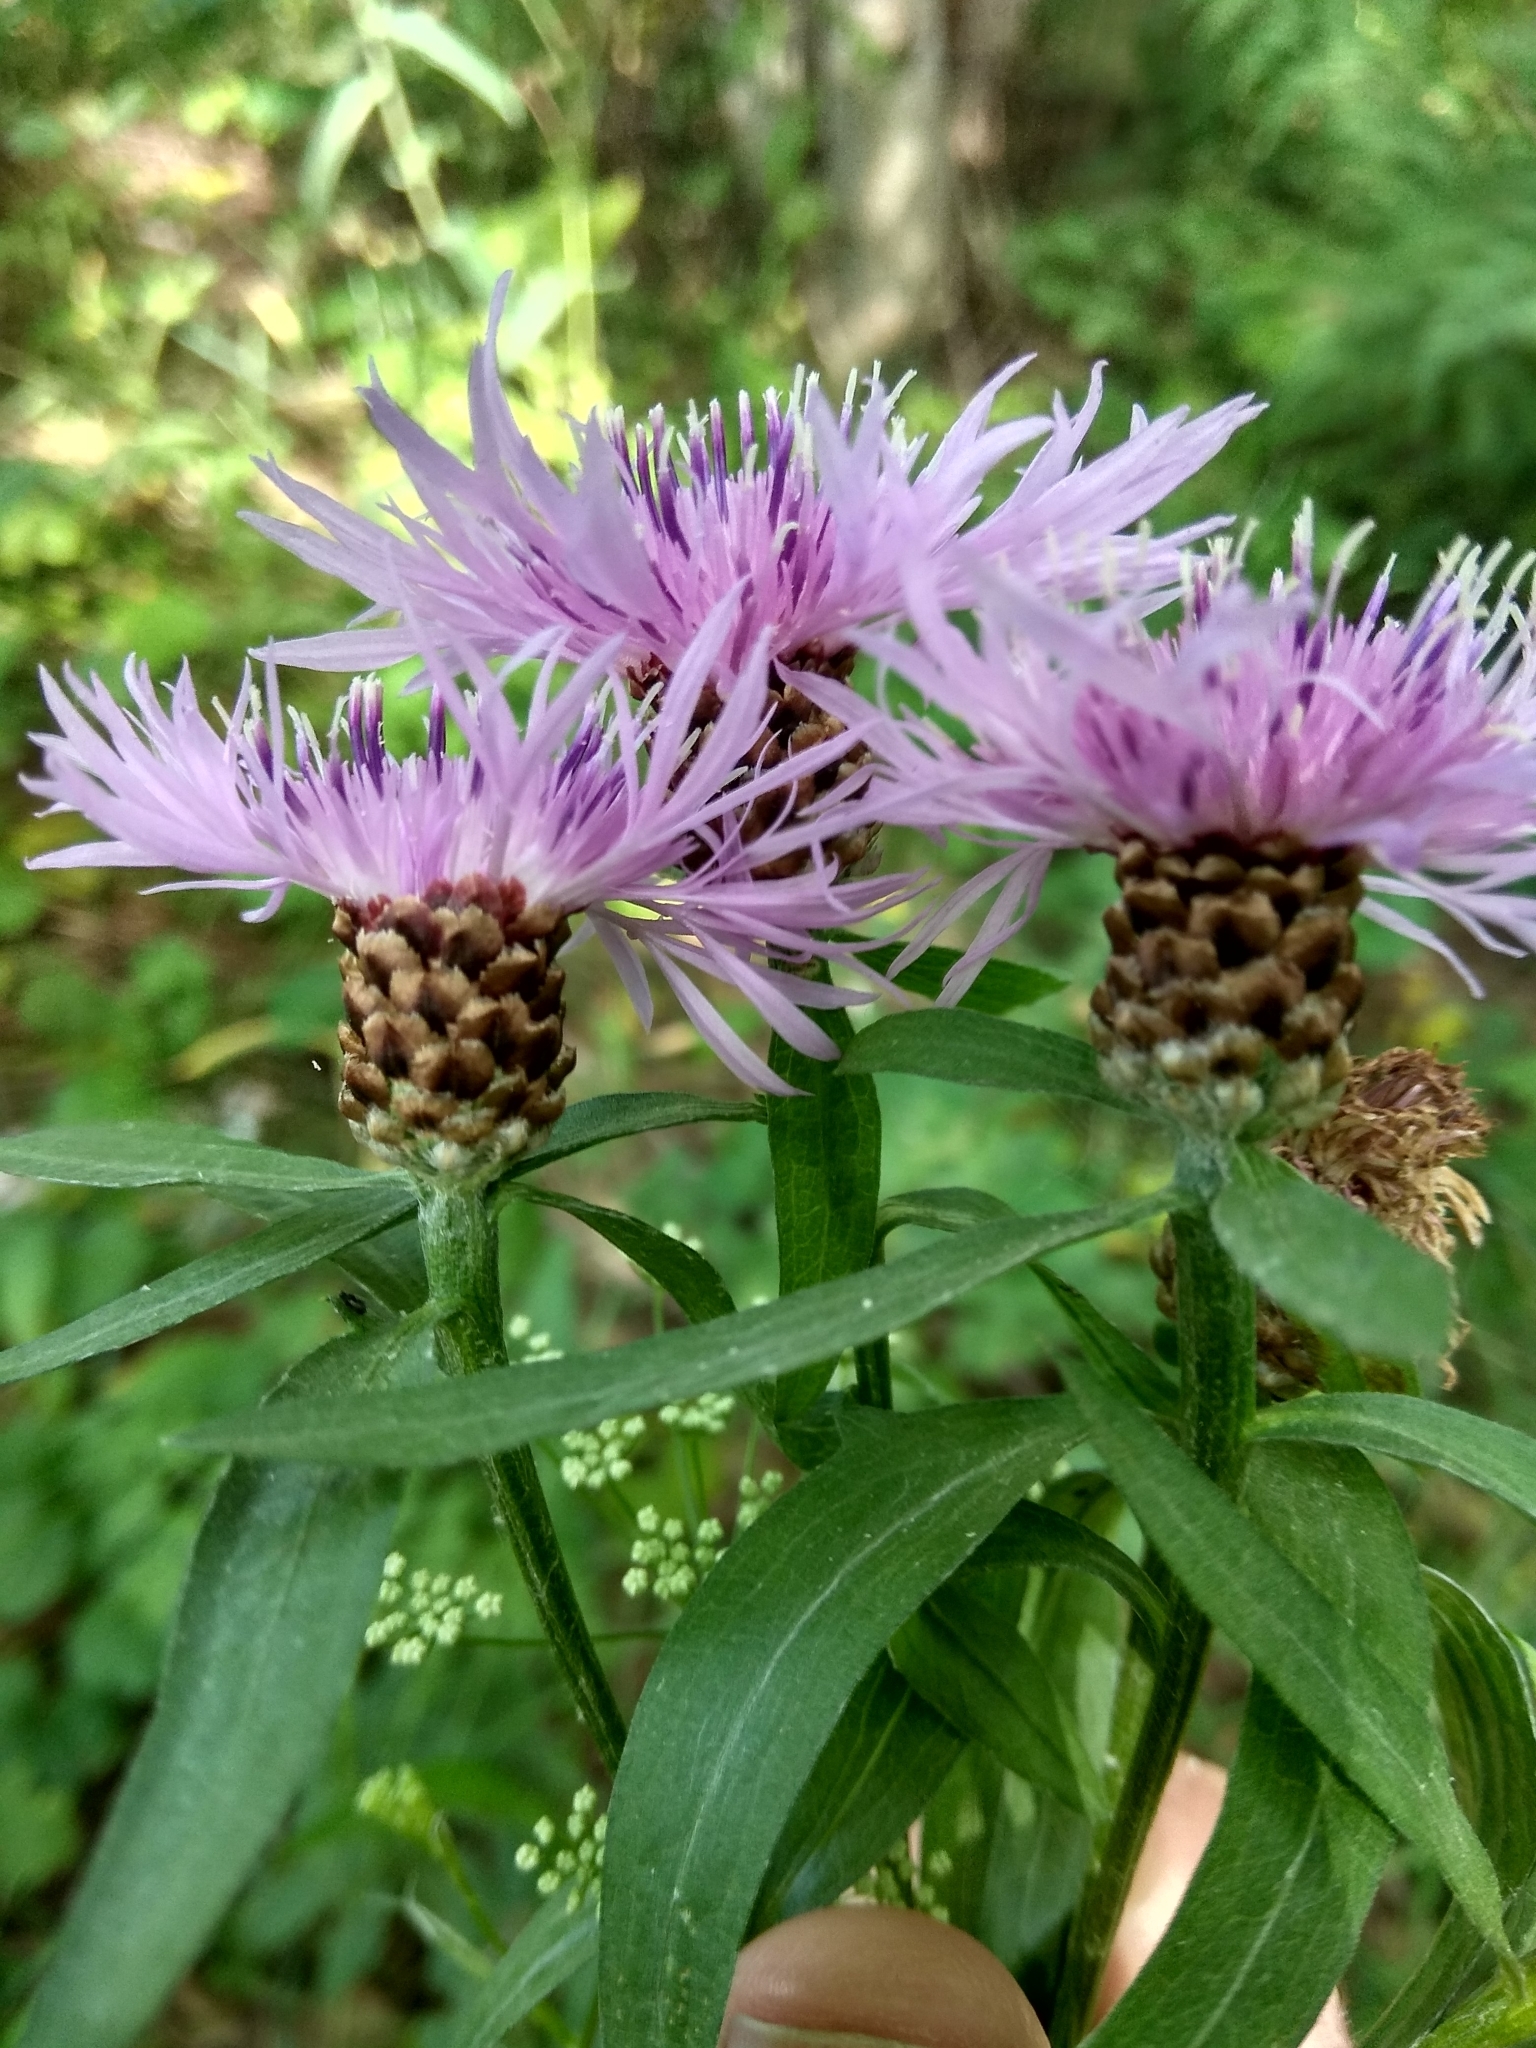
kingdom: Plantae
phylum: Tracheophyta
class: Magnoliopsida
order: Asterales
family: Asteraceae
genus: Centaurea
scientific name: Centaurea jacea
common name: Brown knapweed
